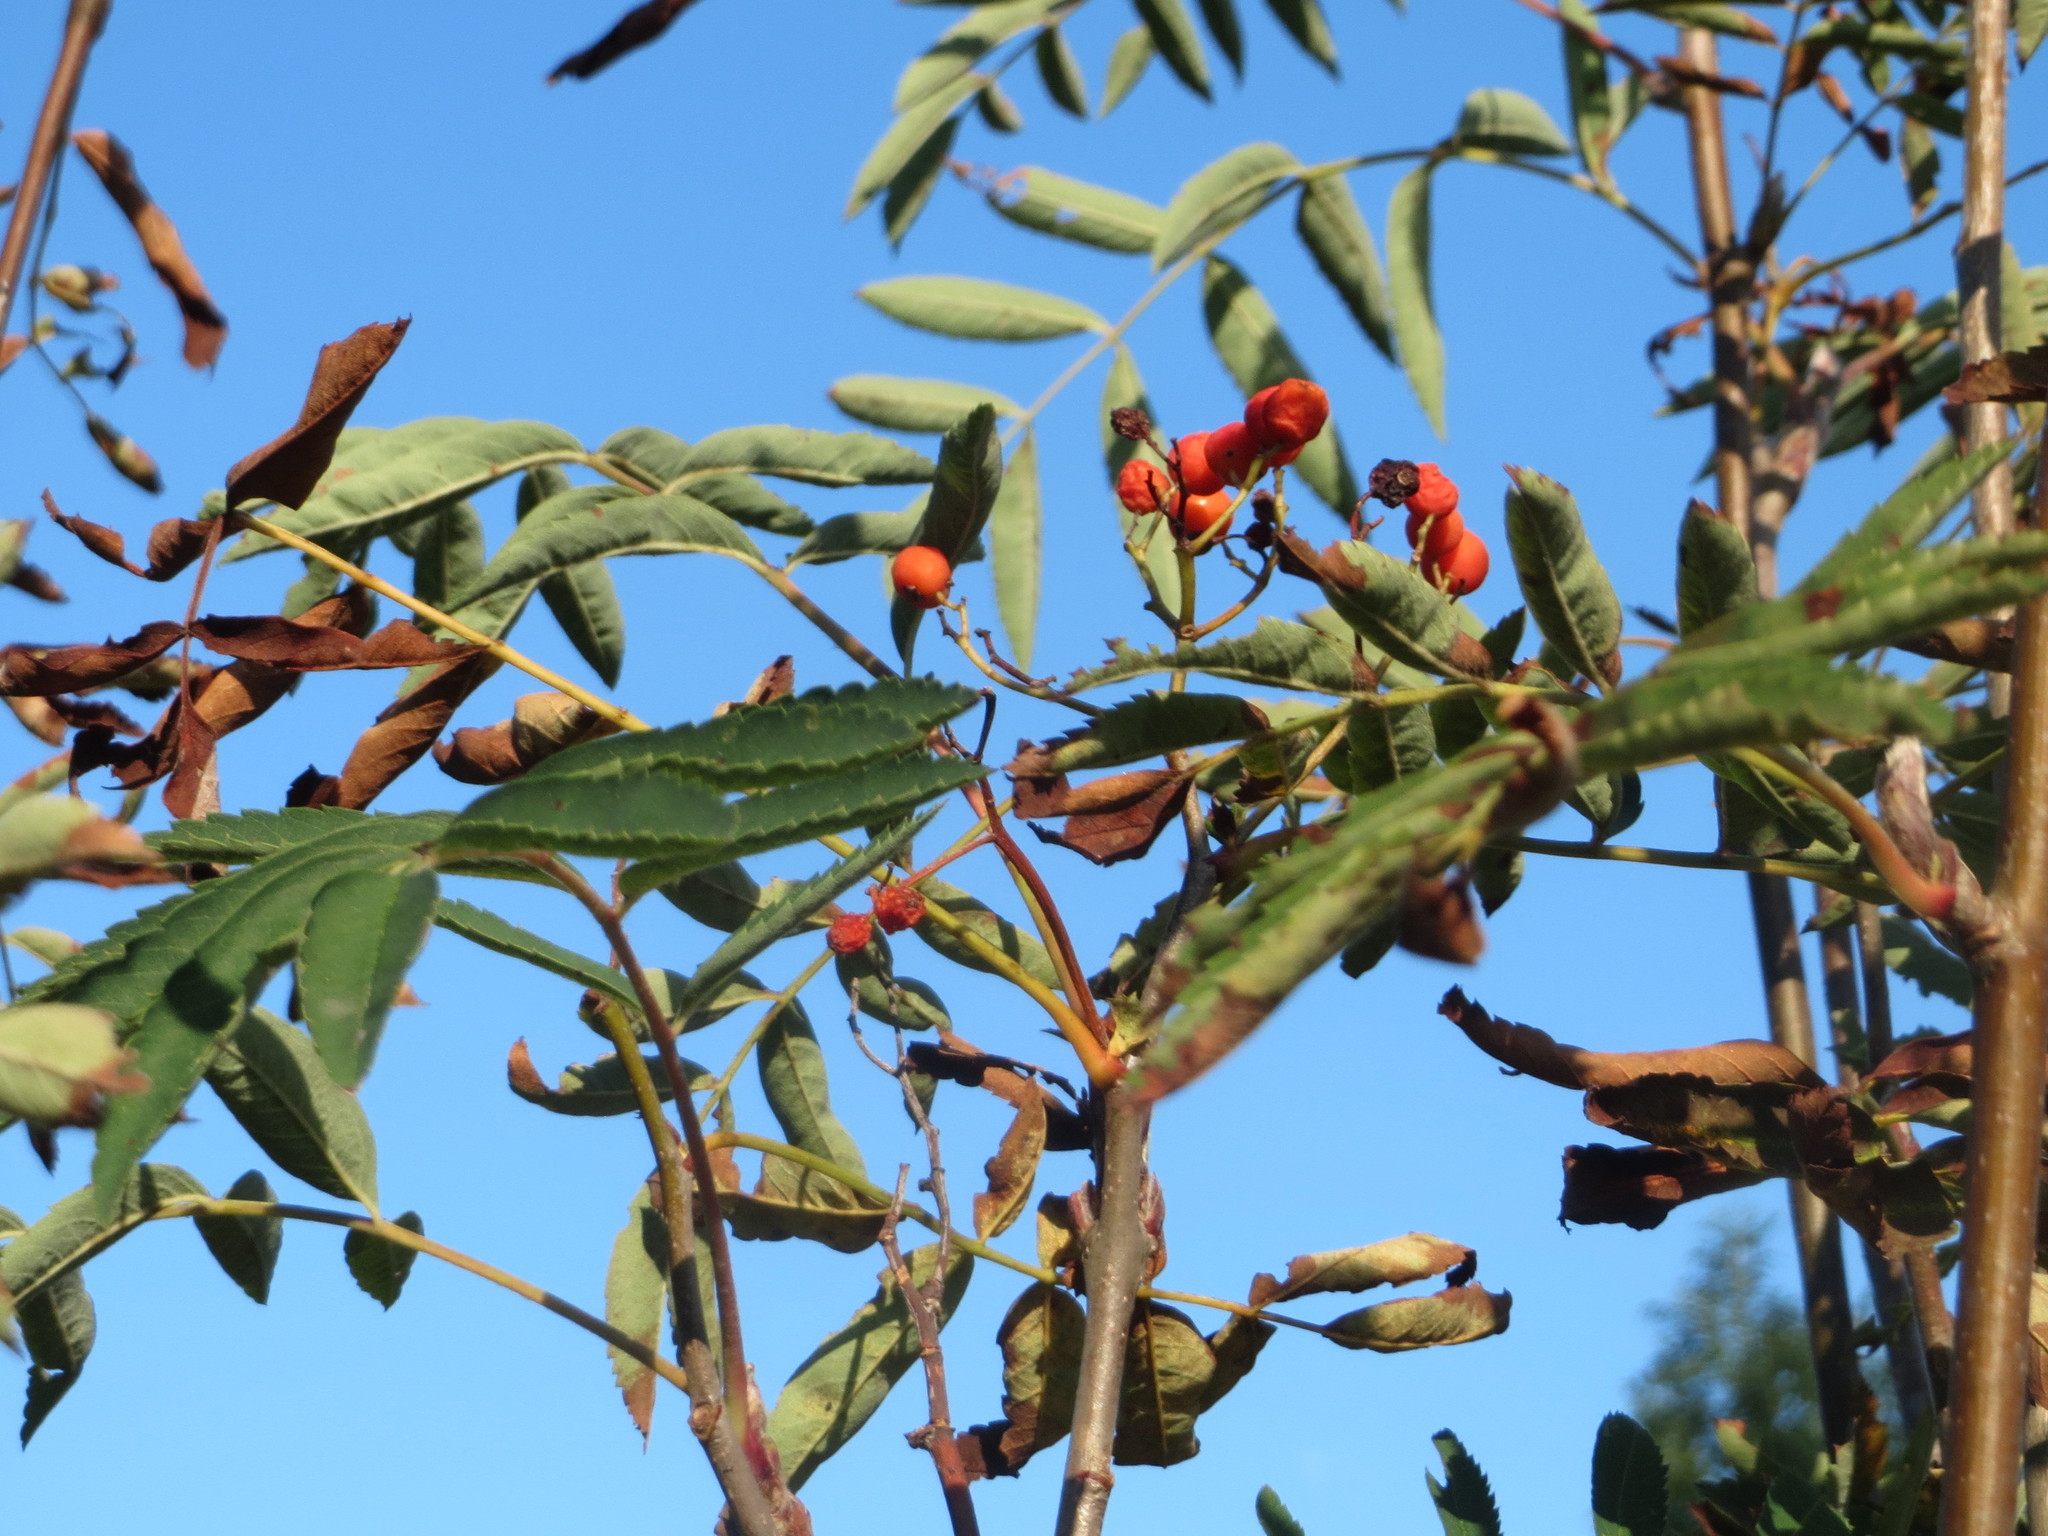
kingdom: Plantae
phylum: Tracheophyta
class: Magnoliopsida
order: Rosales
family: Rosaceae
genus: Sorbus
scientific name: Sorbus aucuparia
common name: Rowan
